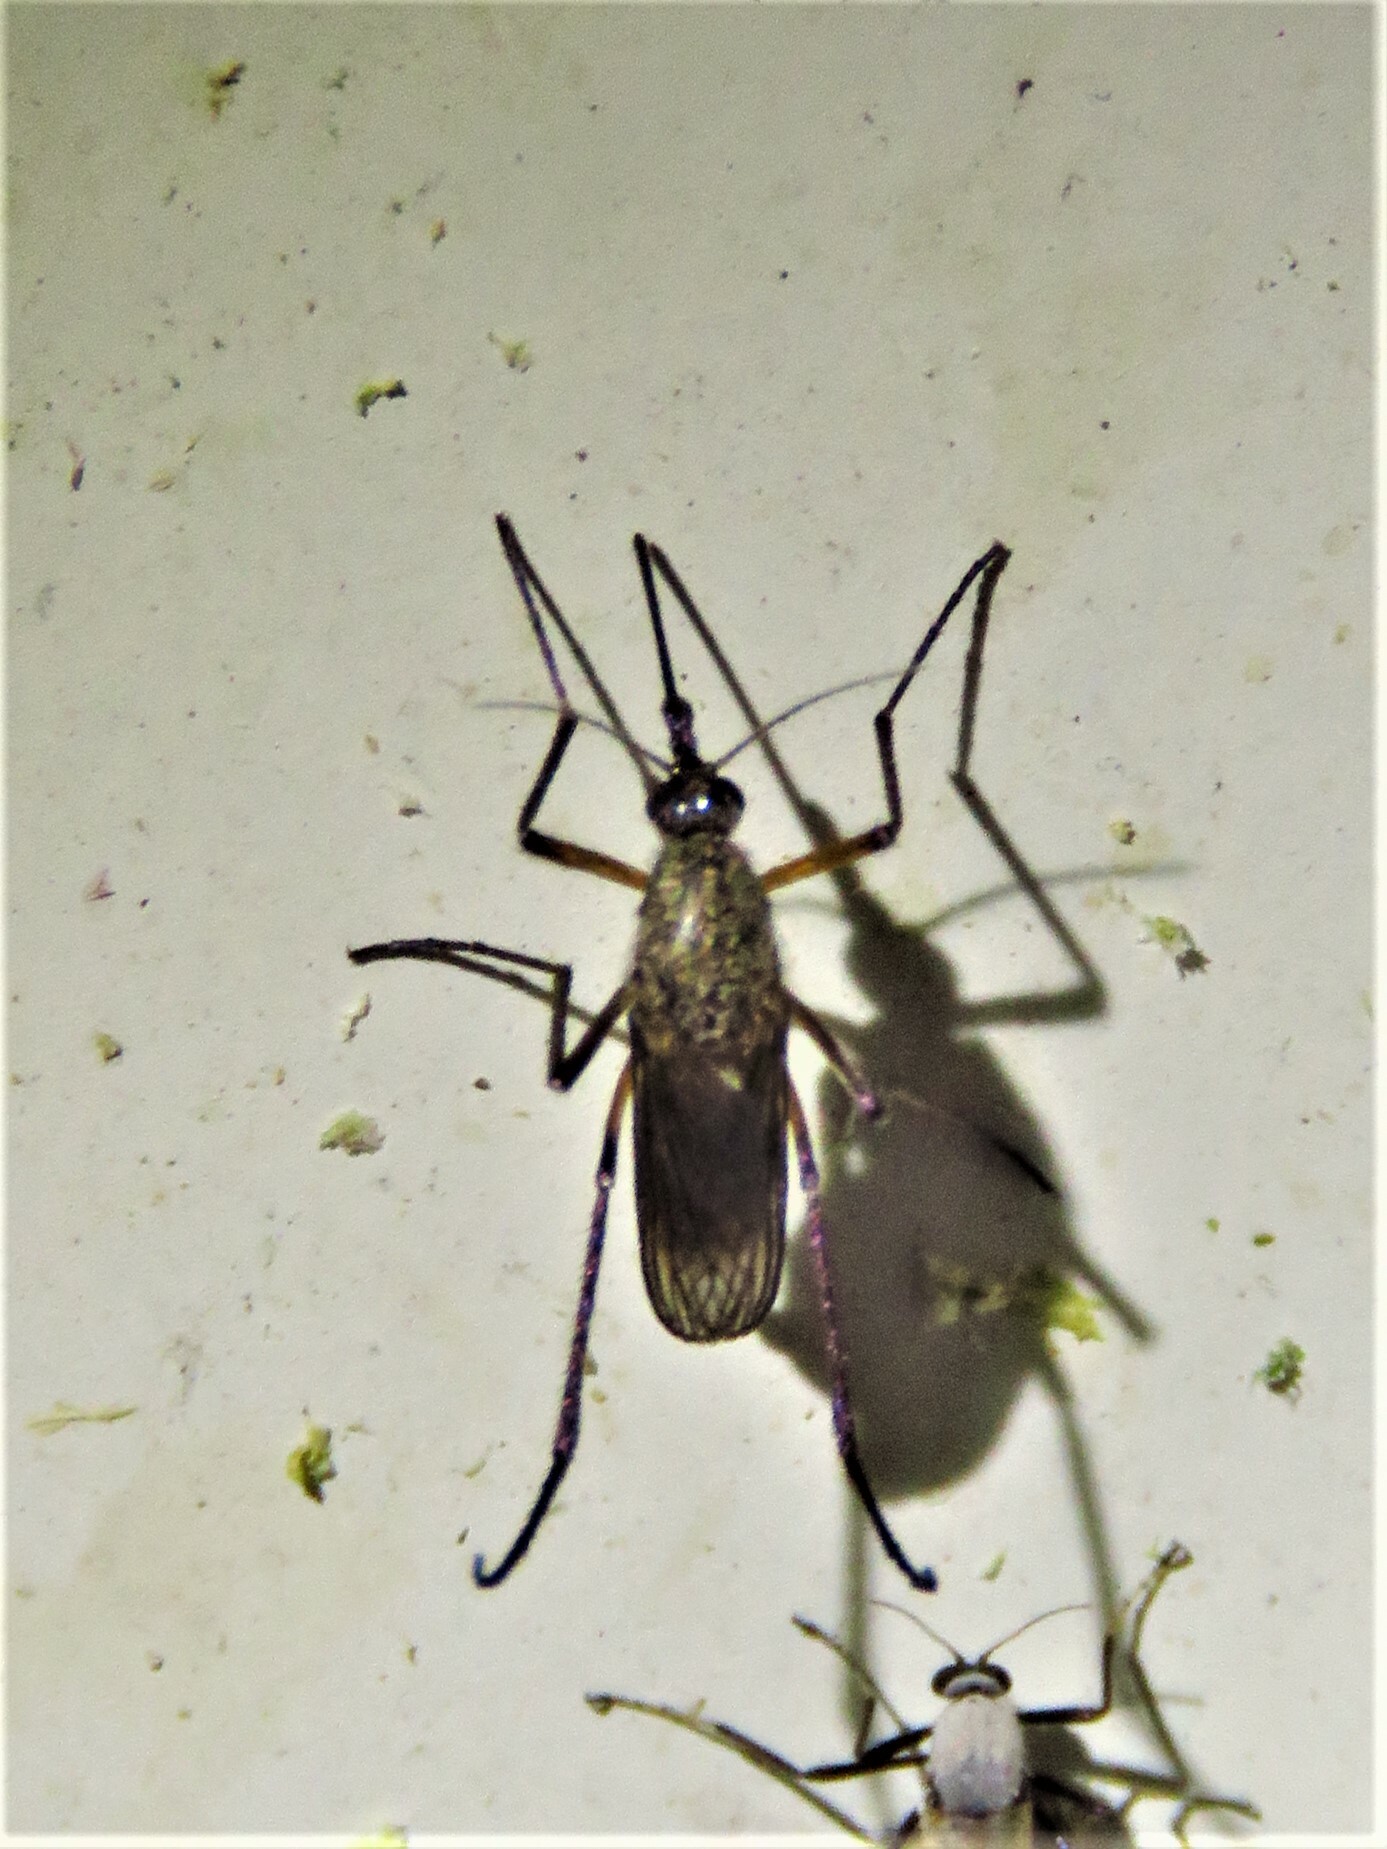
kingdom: Animalia
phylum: Arthropoda
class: Insecta
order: Diptera
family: Culicidae
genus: Psorophora
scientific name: Psorophora cyanescens
